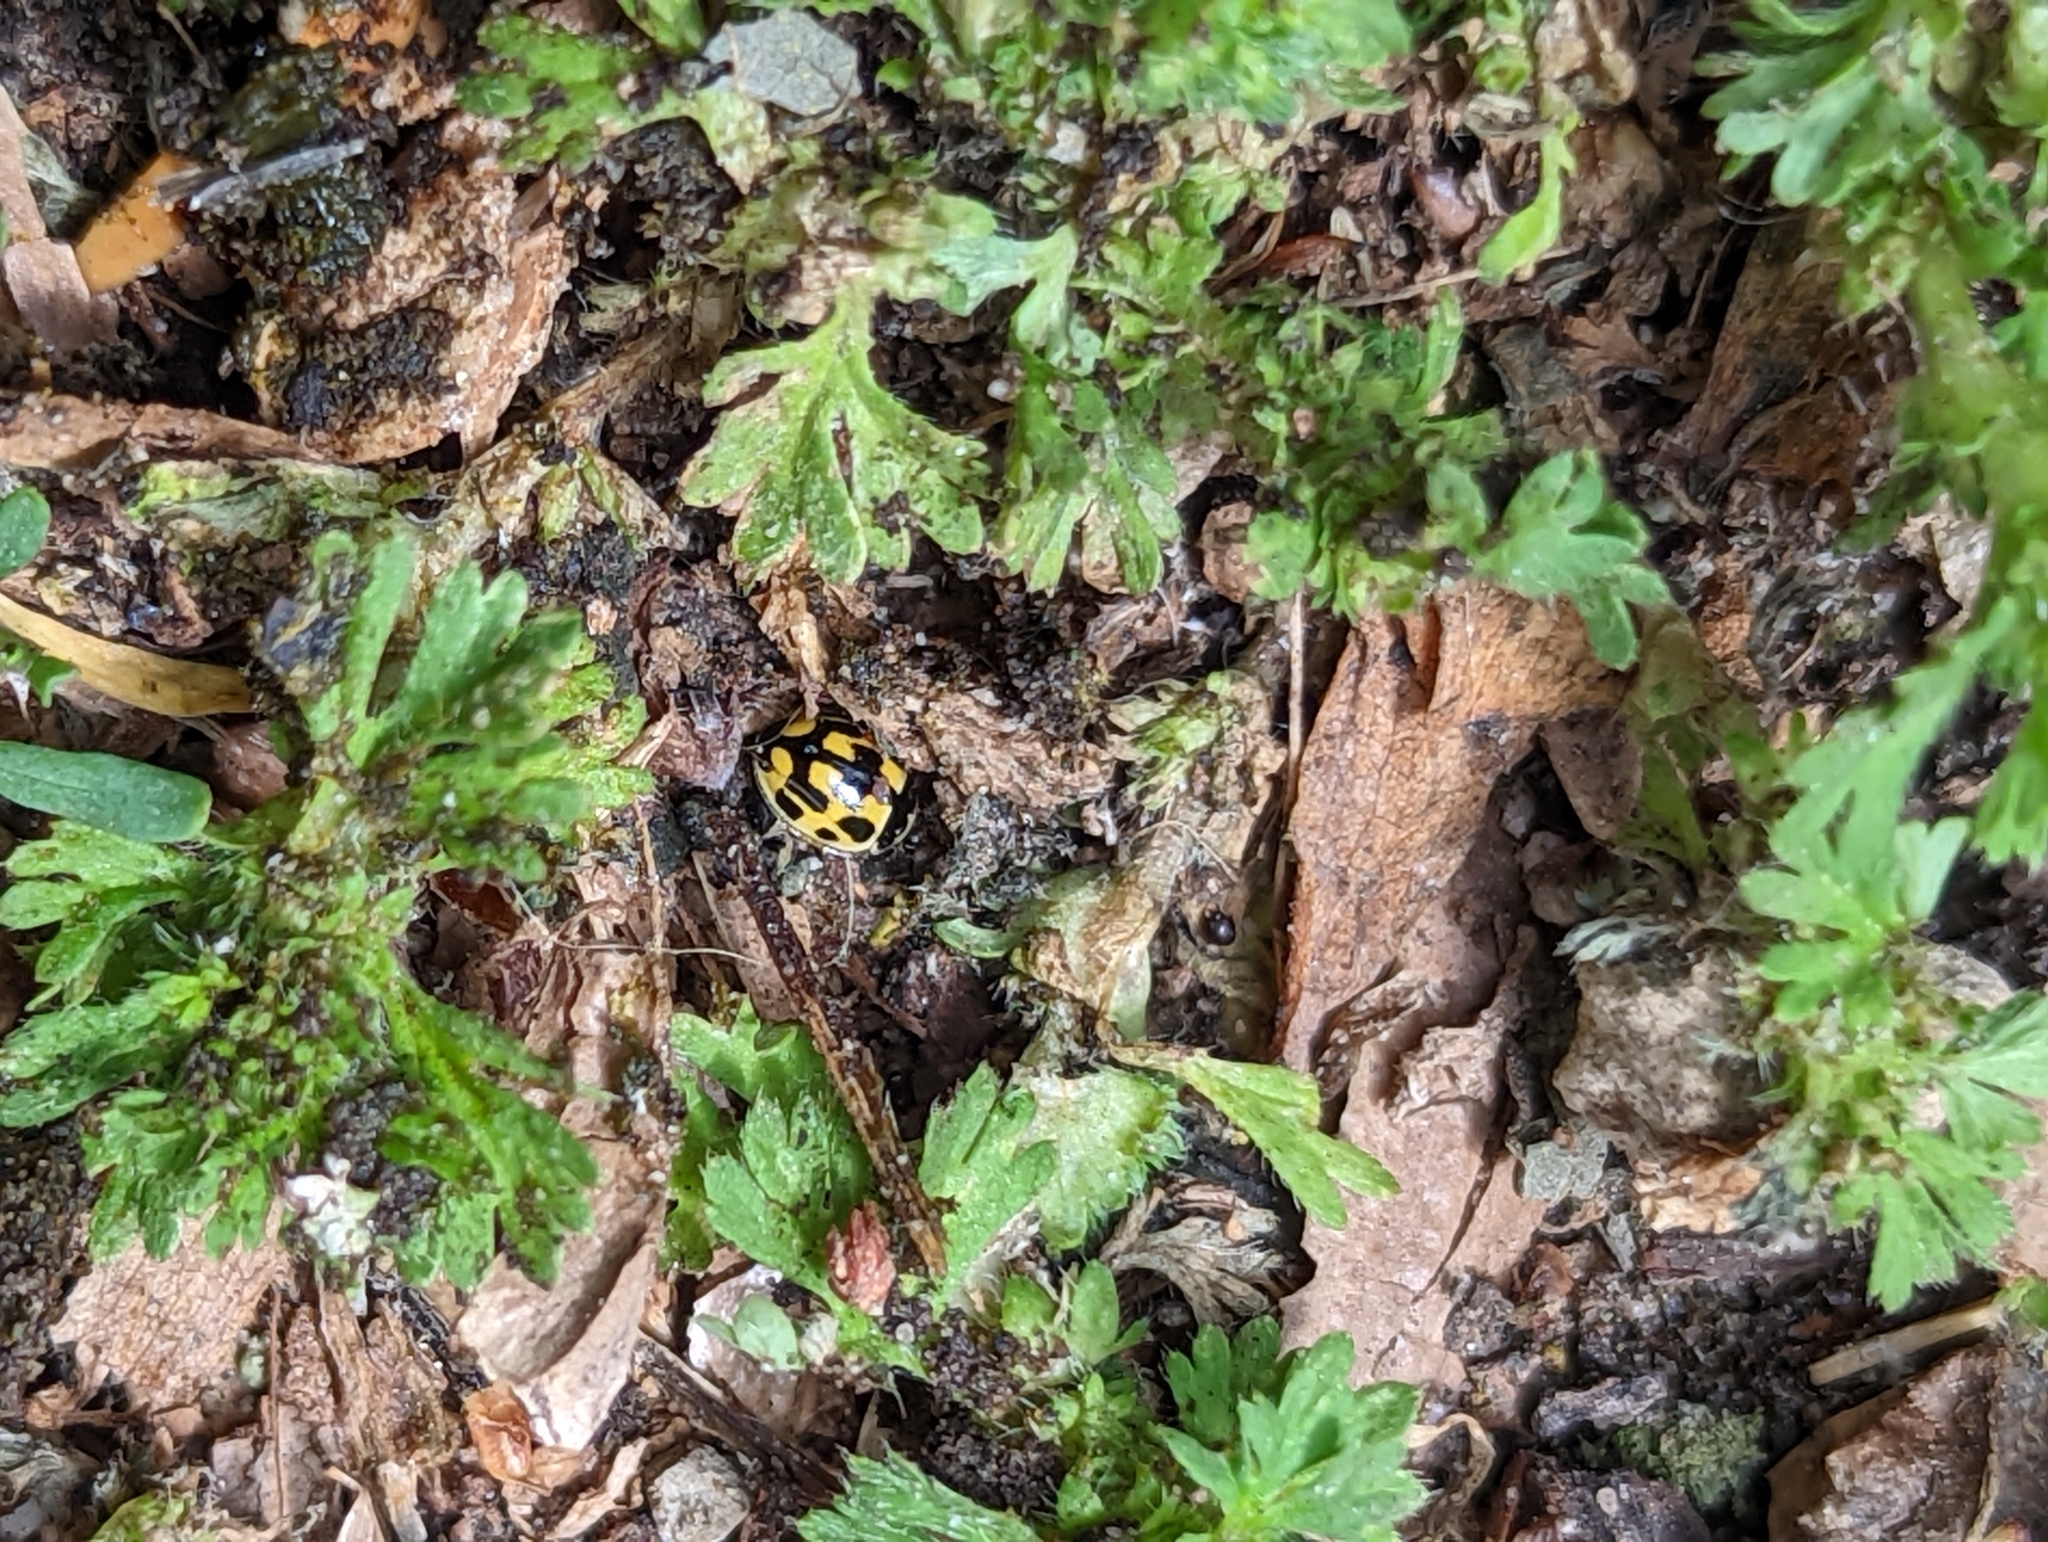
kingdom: Animalia
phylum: Arthropoda
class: Insecta
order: Coleoptera
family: Coccinellidae
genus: Propylaea
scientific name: Propylaea quatuordecimpunctata
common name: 14-spotted ladybird beetle
